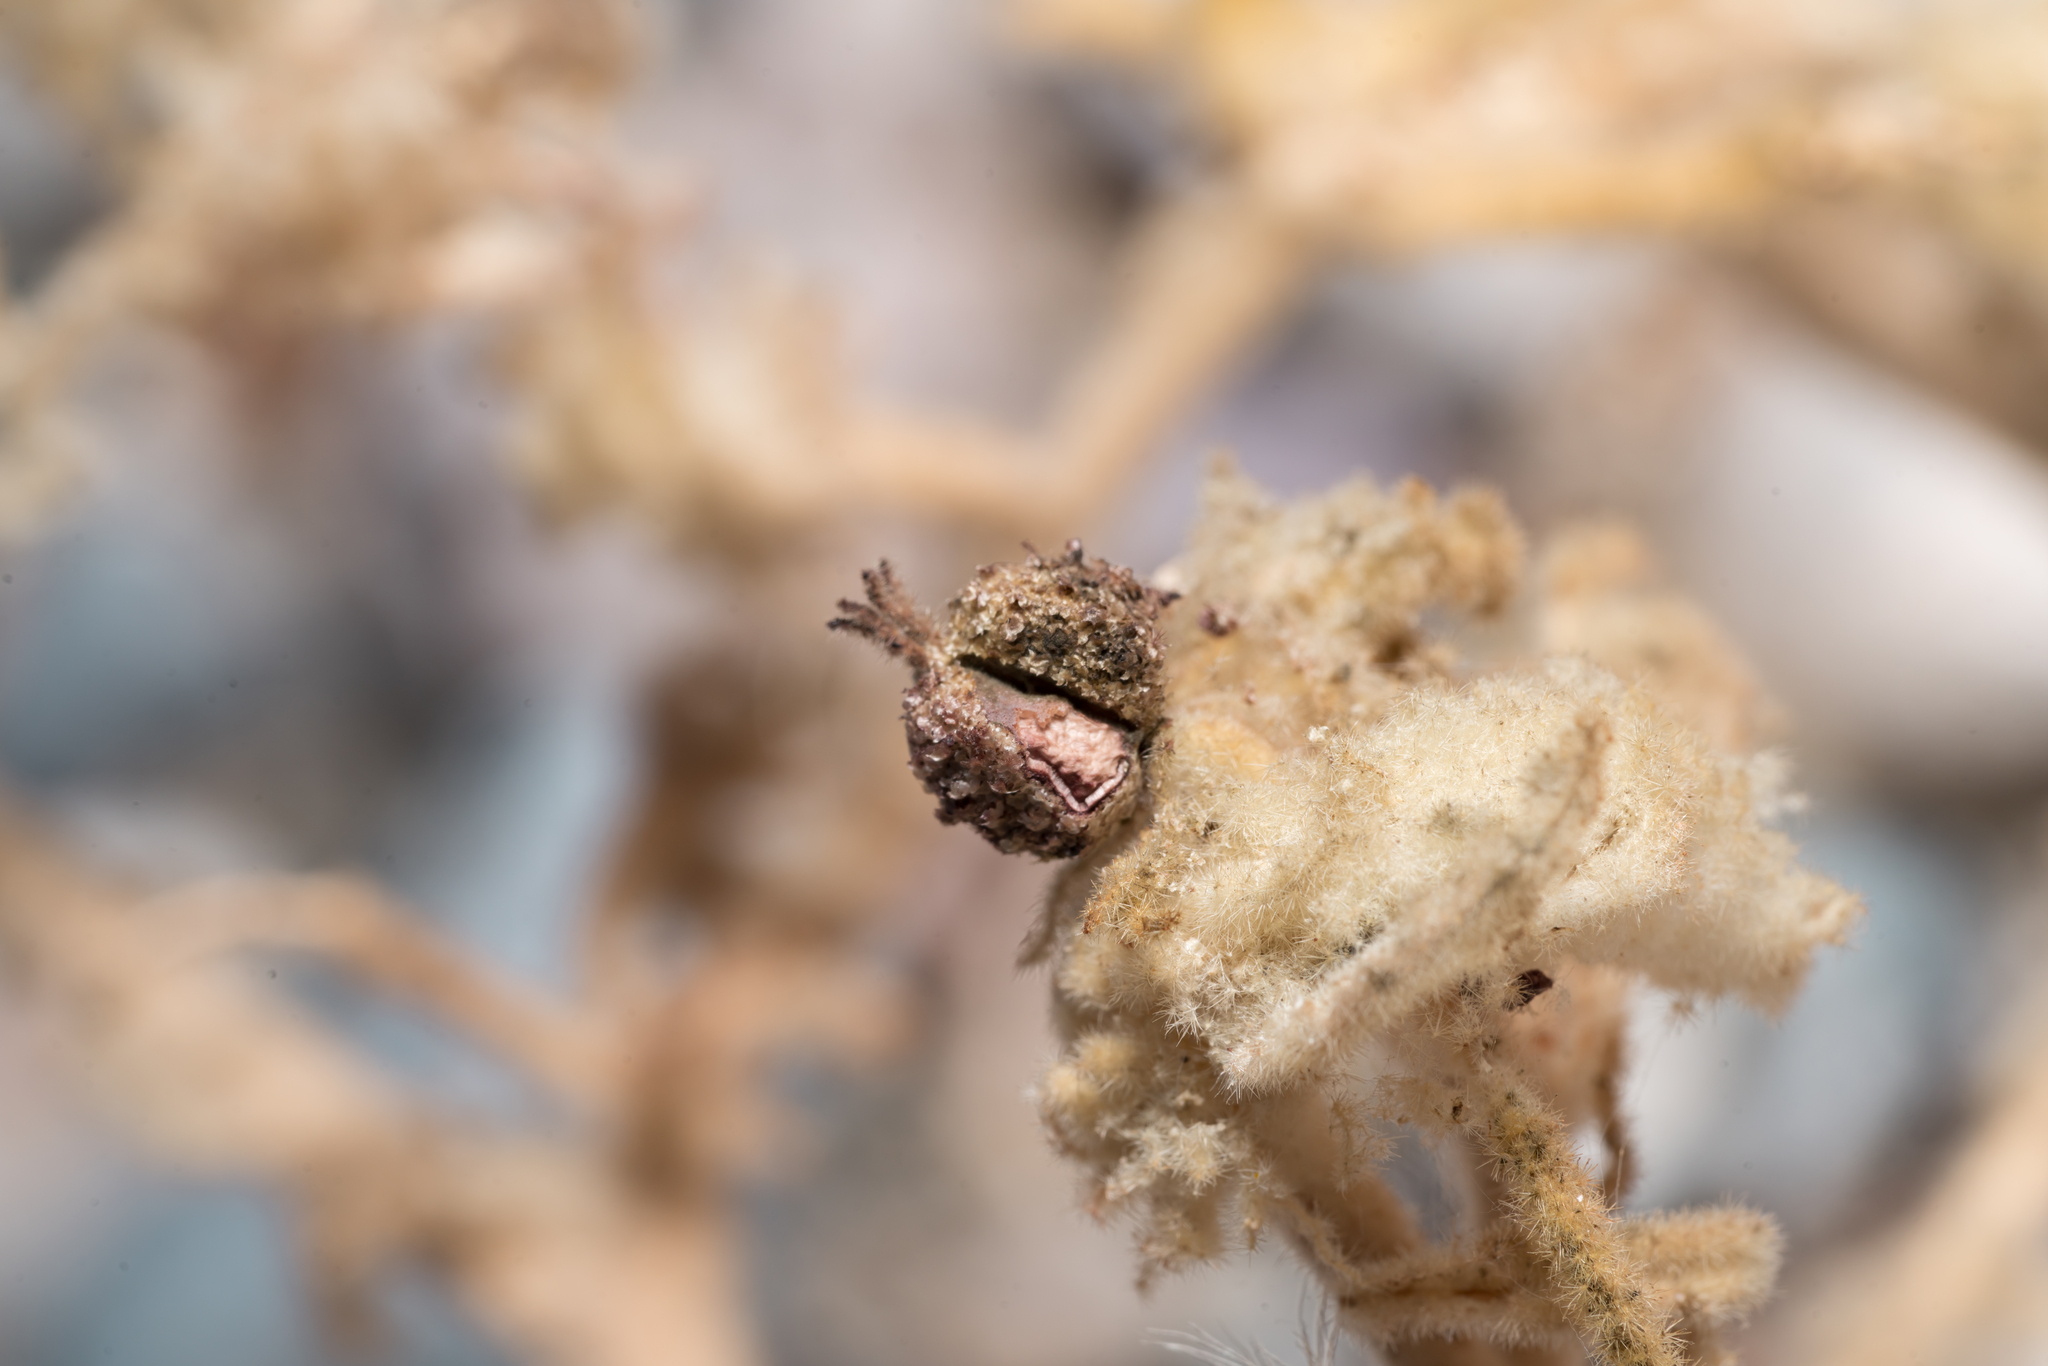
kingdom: Plantae
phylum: Tracheophyta
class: Magnoliopsida
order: Malpighiales
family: Euphorbiaceae
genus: Chrozophora
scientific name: Chrozophora tinctoria
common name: Dyer's litmus
